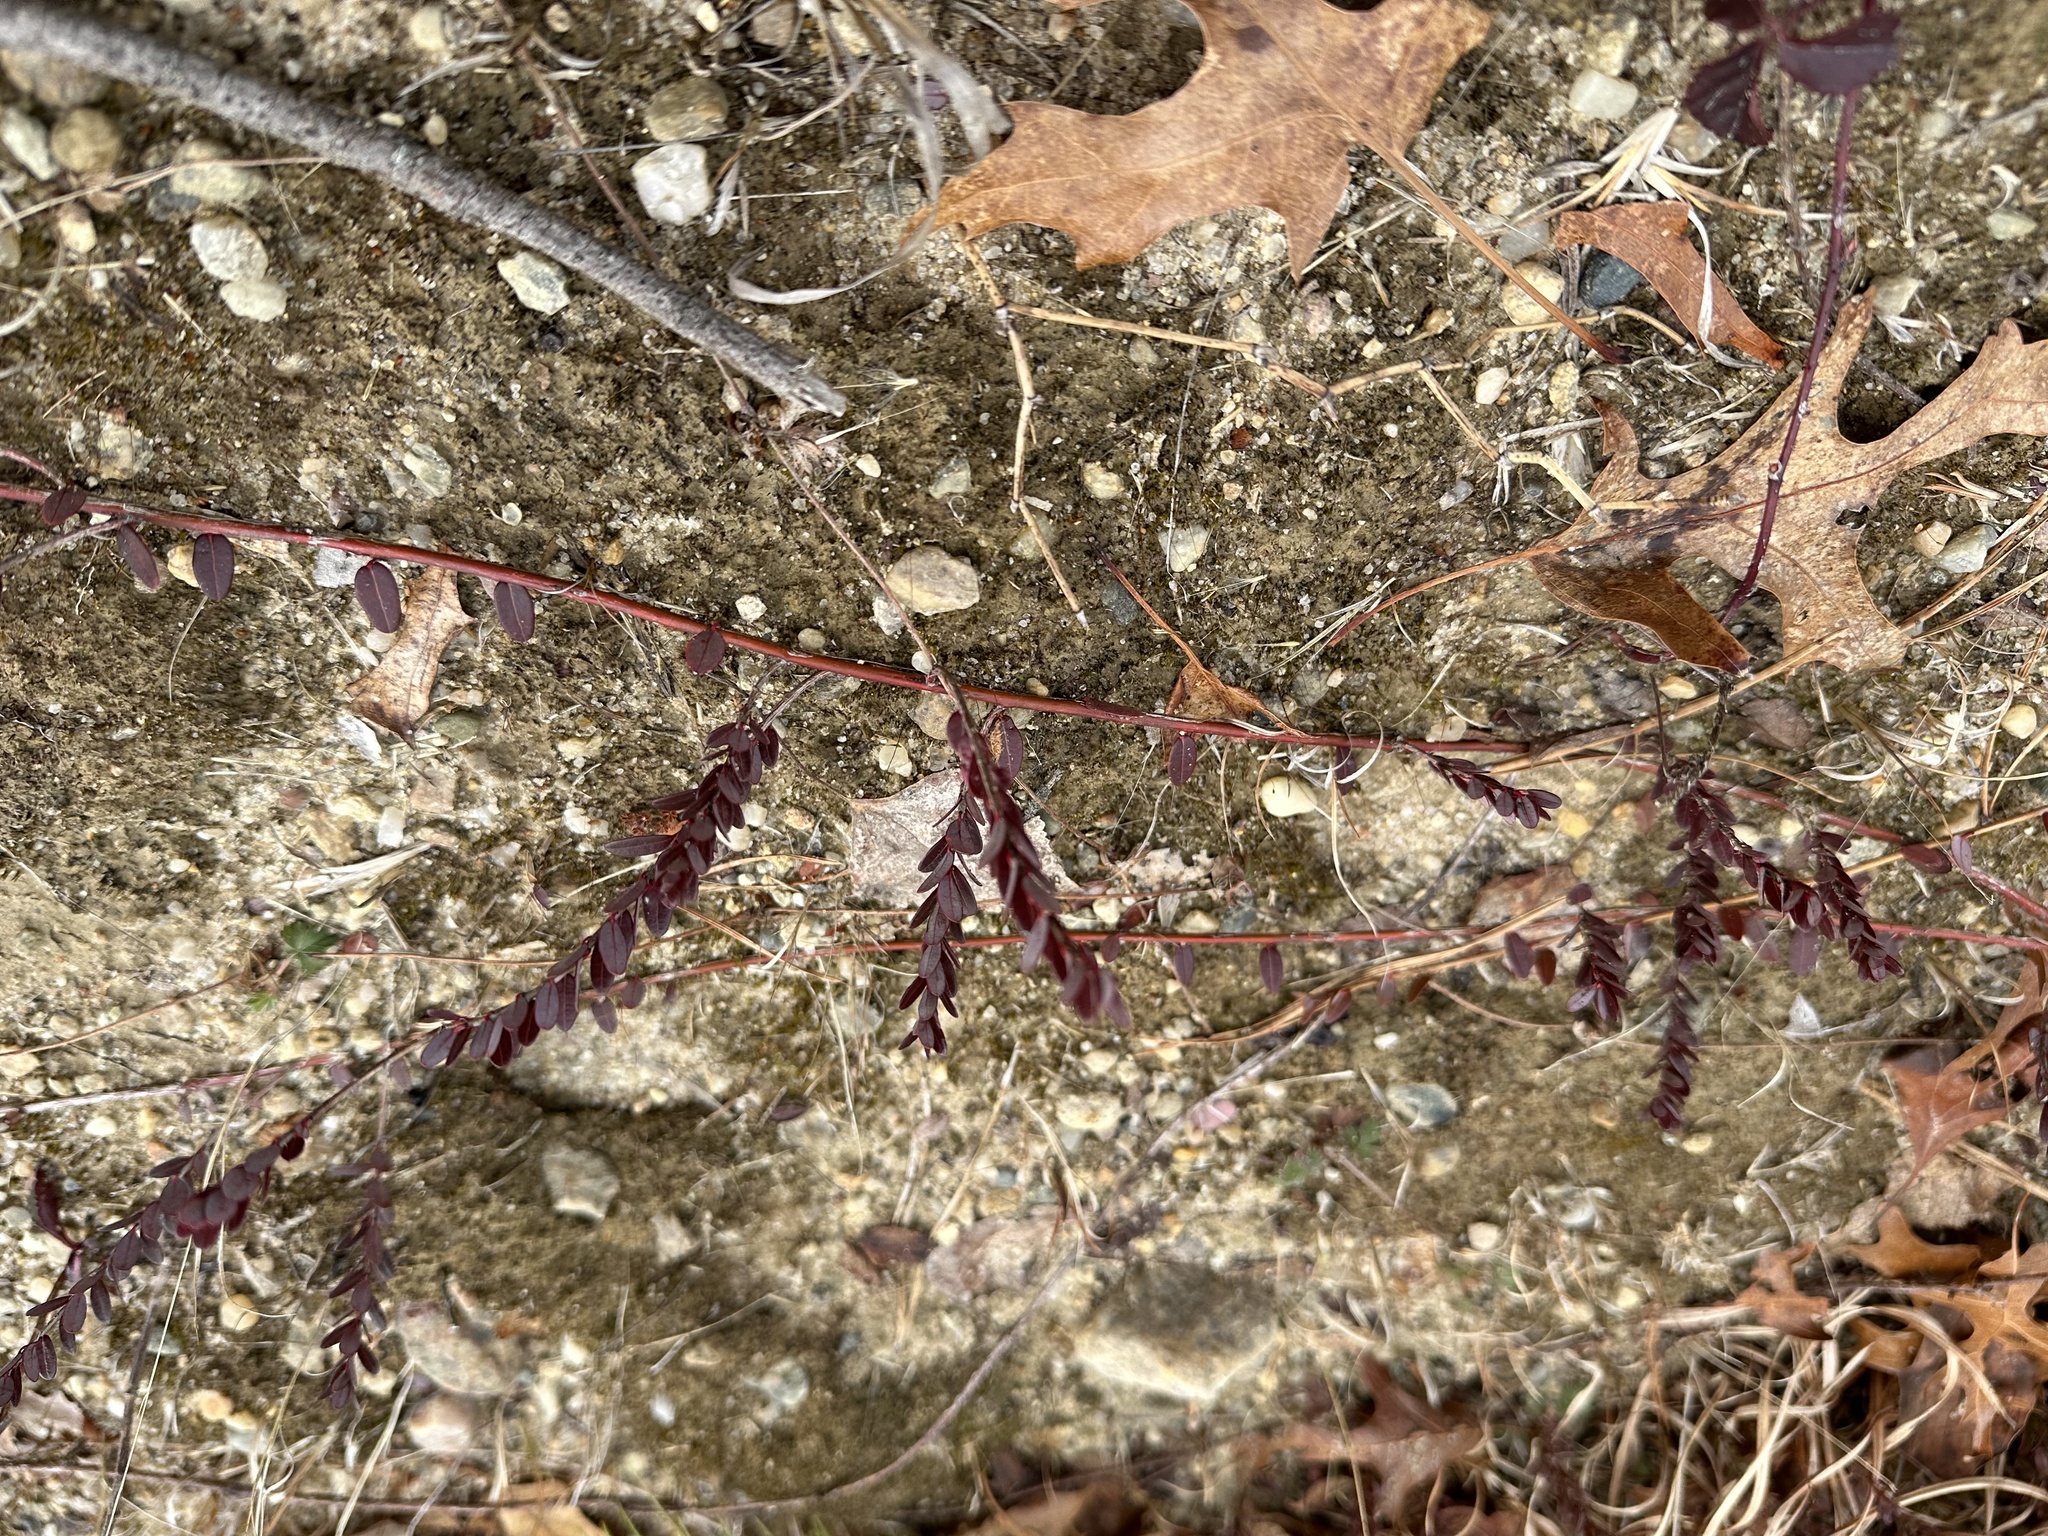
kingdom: Plantae
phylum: Tracheophyta
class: Magnoliopsida
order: Ericales
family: Ericaceae
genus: Vaccinium
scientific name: Vaccinium macrocarpon
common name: American cranberry
